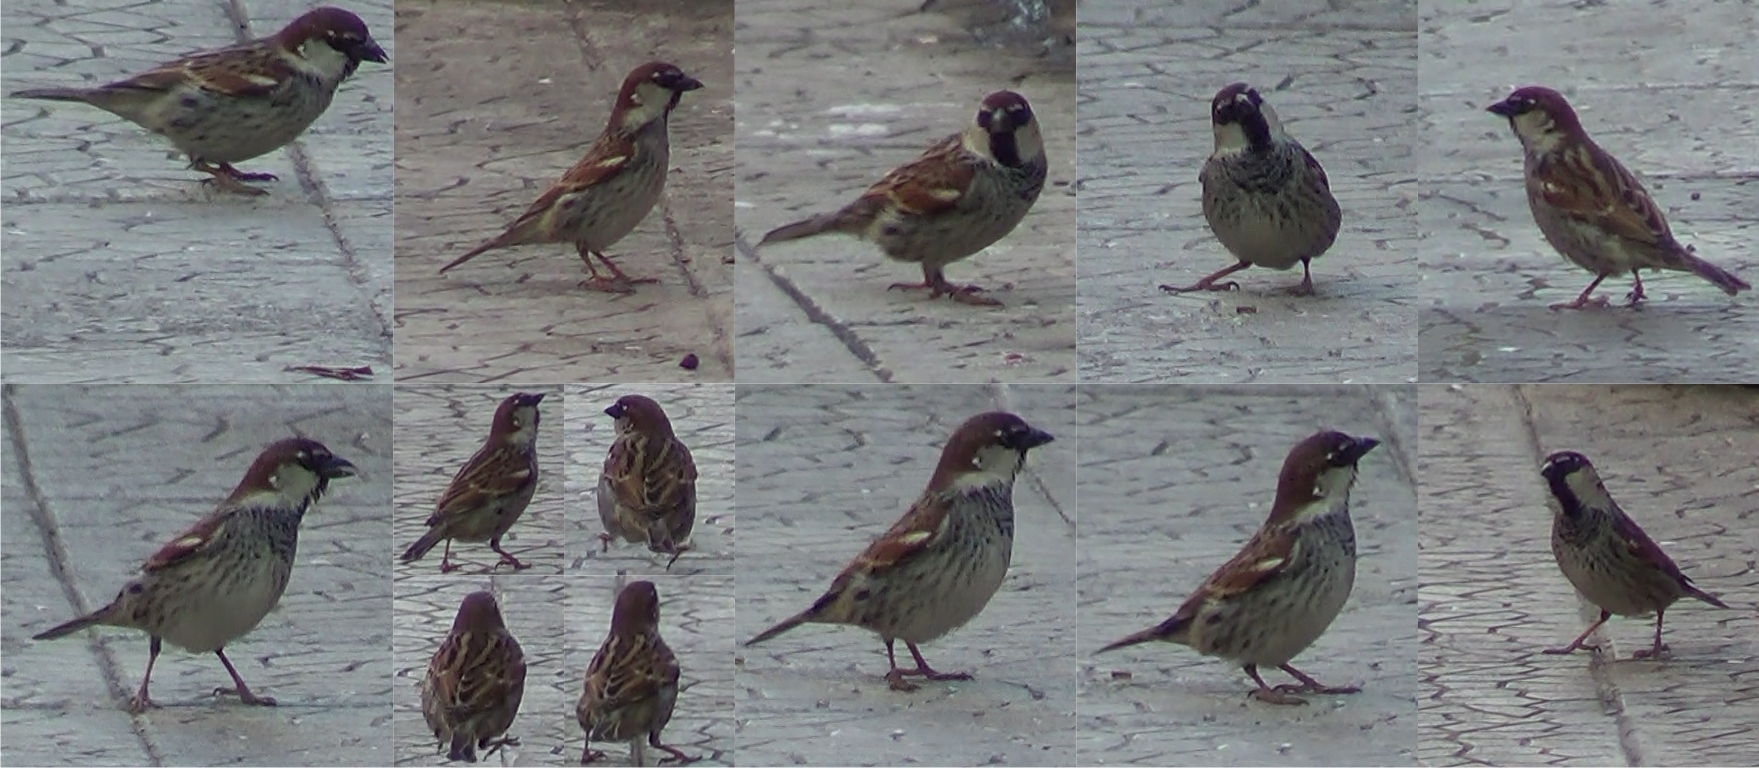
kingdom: Animalia
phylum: Chordata
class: Aves
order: Passeriformes
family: Passeridae
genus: Passer
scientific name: Passer hispaniolensis
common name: Spanish sparrow
